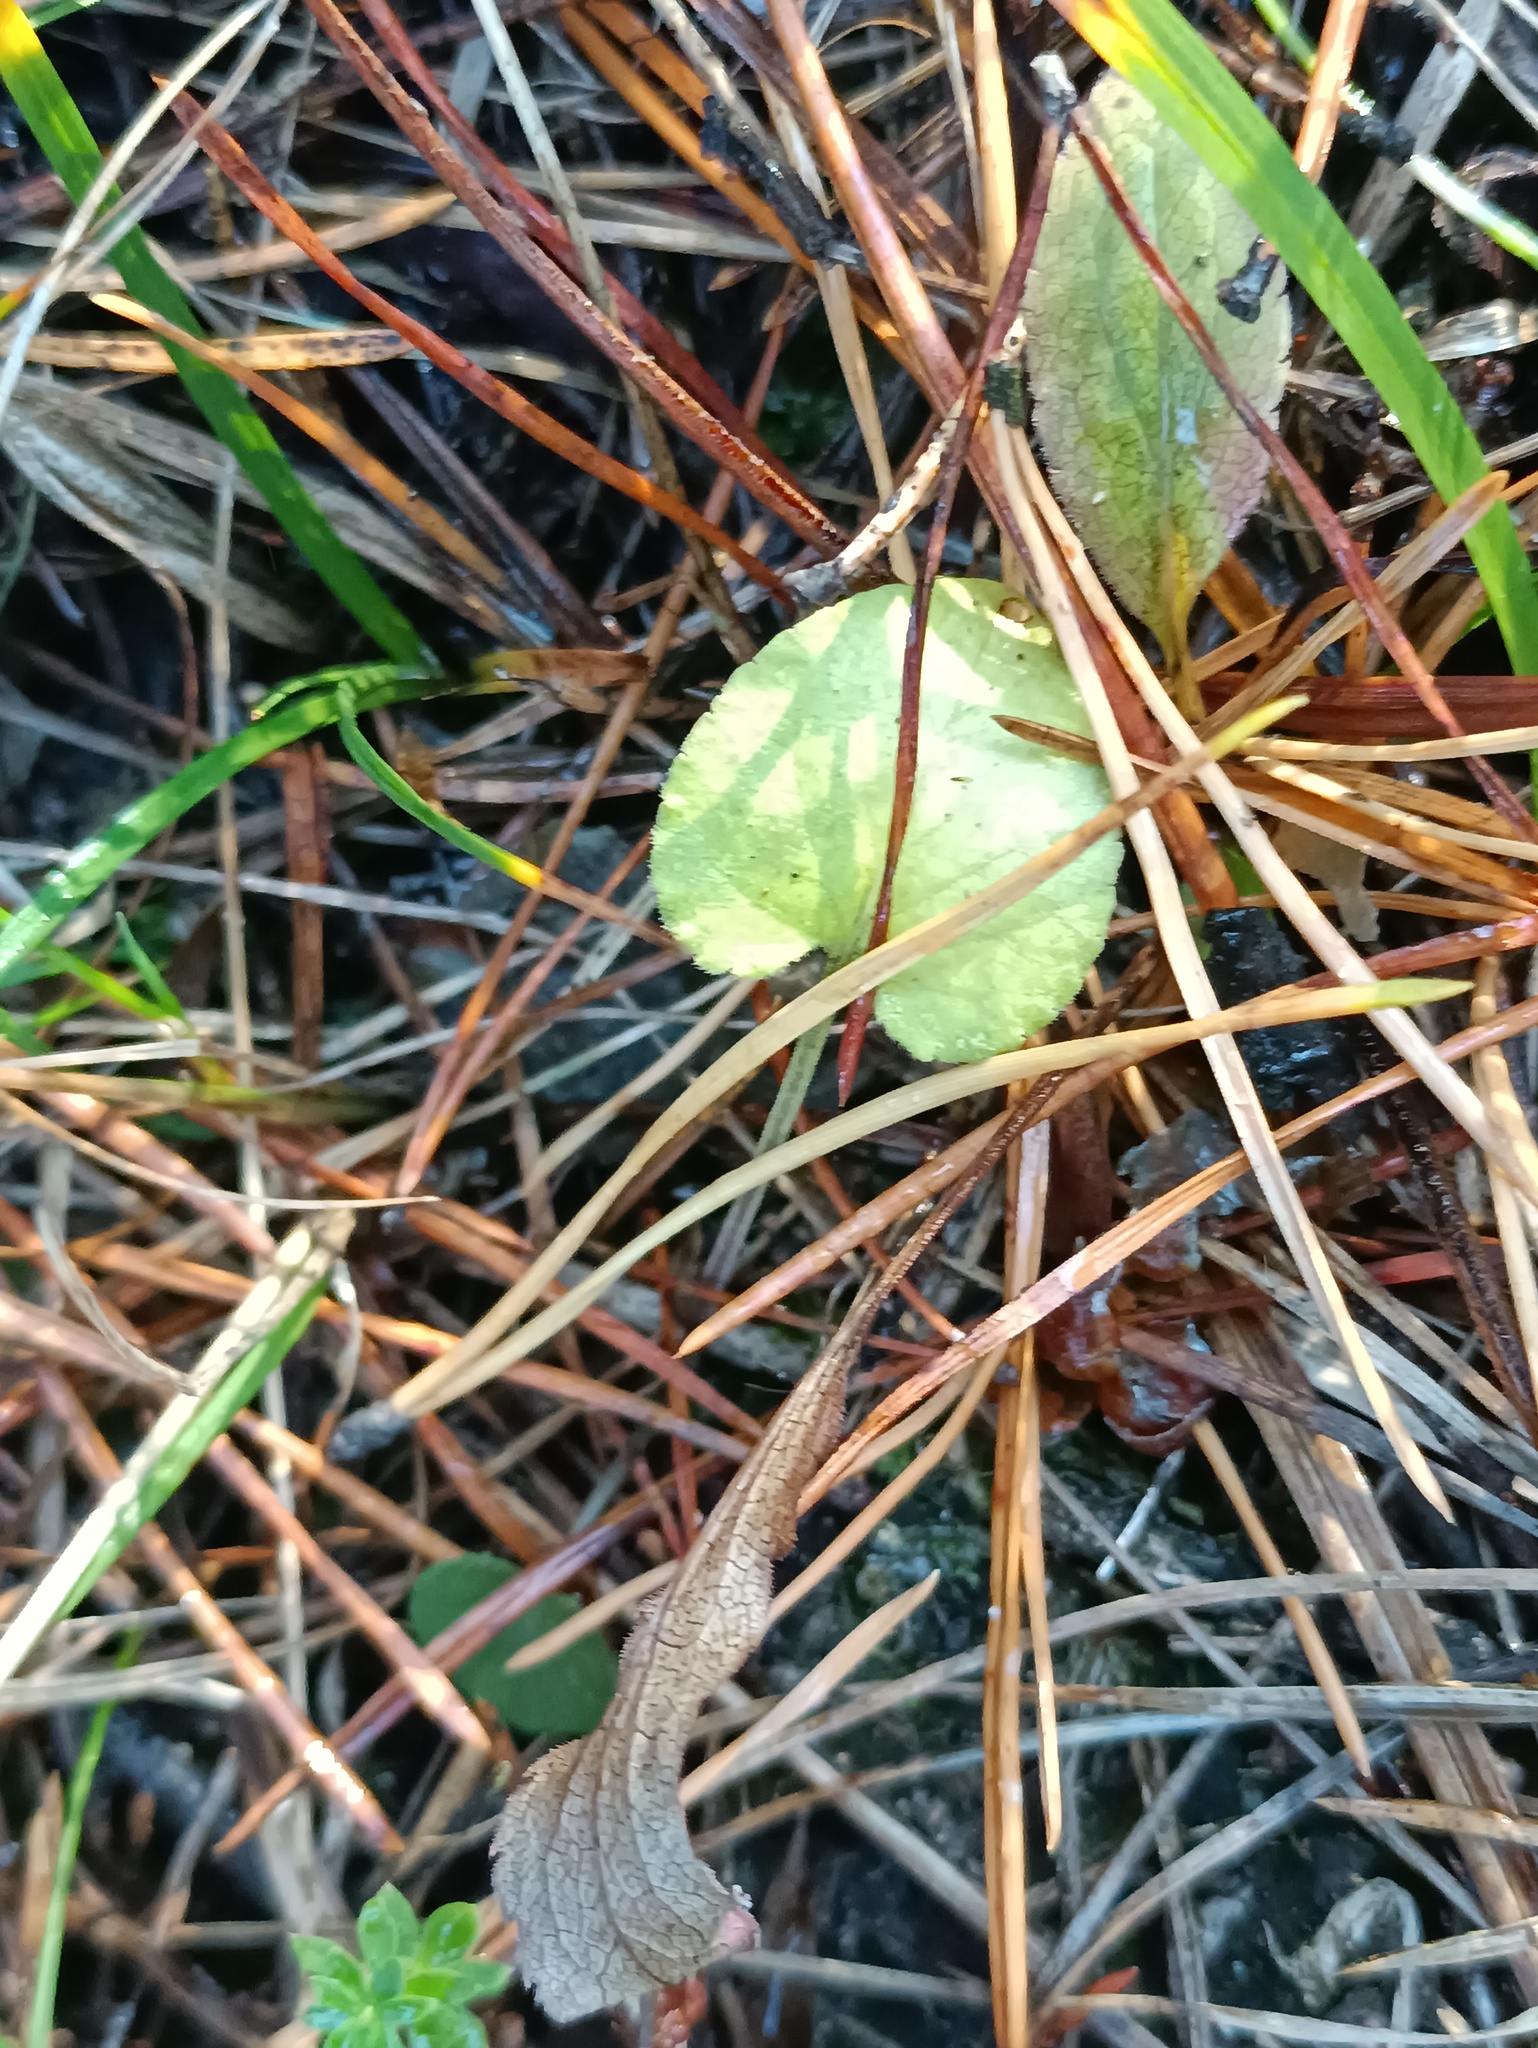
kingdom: Plantae
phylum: Tracheophyta
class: Magnoliopsida
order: Malpighiales
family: Violaceae
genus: Viola
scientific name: Viola rupestris
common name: Teesdale violet
